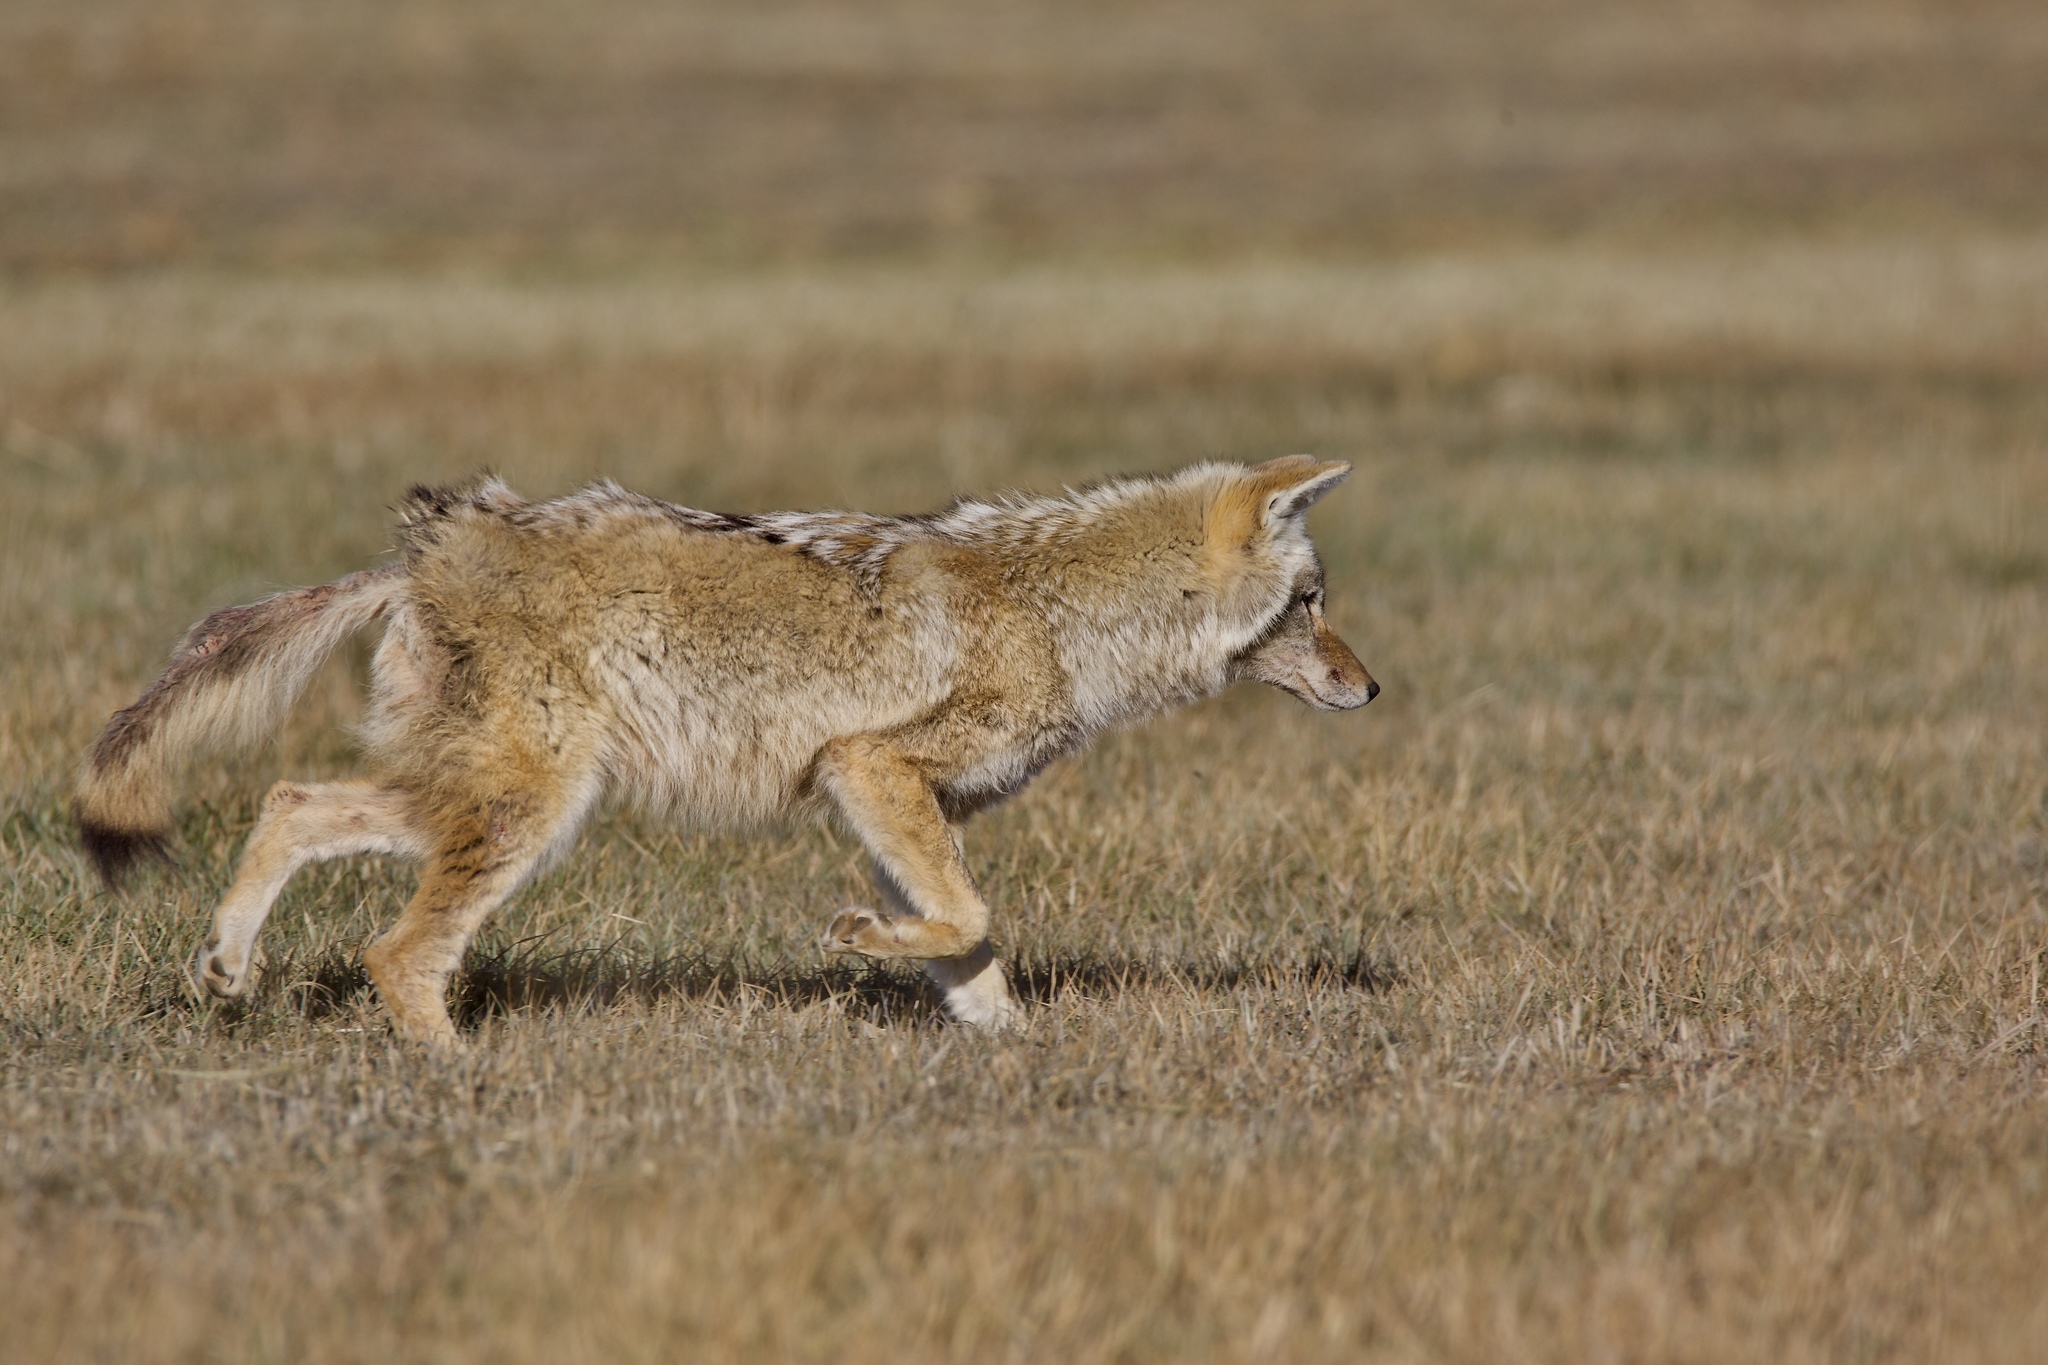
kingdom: Animalia
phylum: Chordata
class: Mammalia
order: Carnivora
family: Canidae
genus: Canis
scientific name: Canis latrans
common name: Coyote
